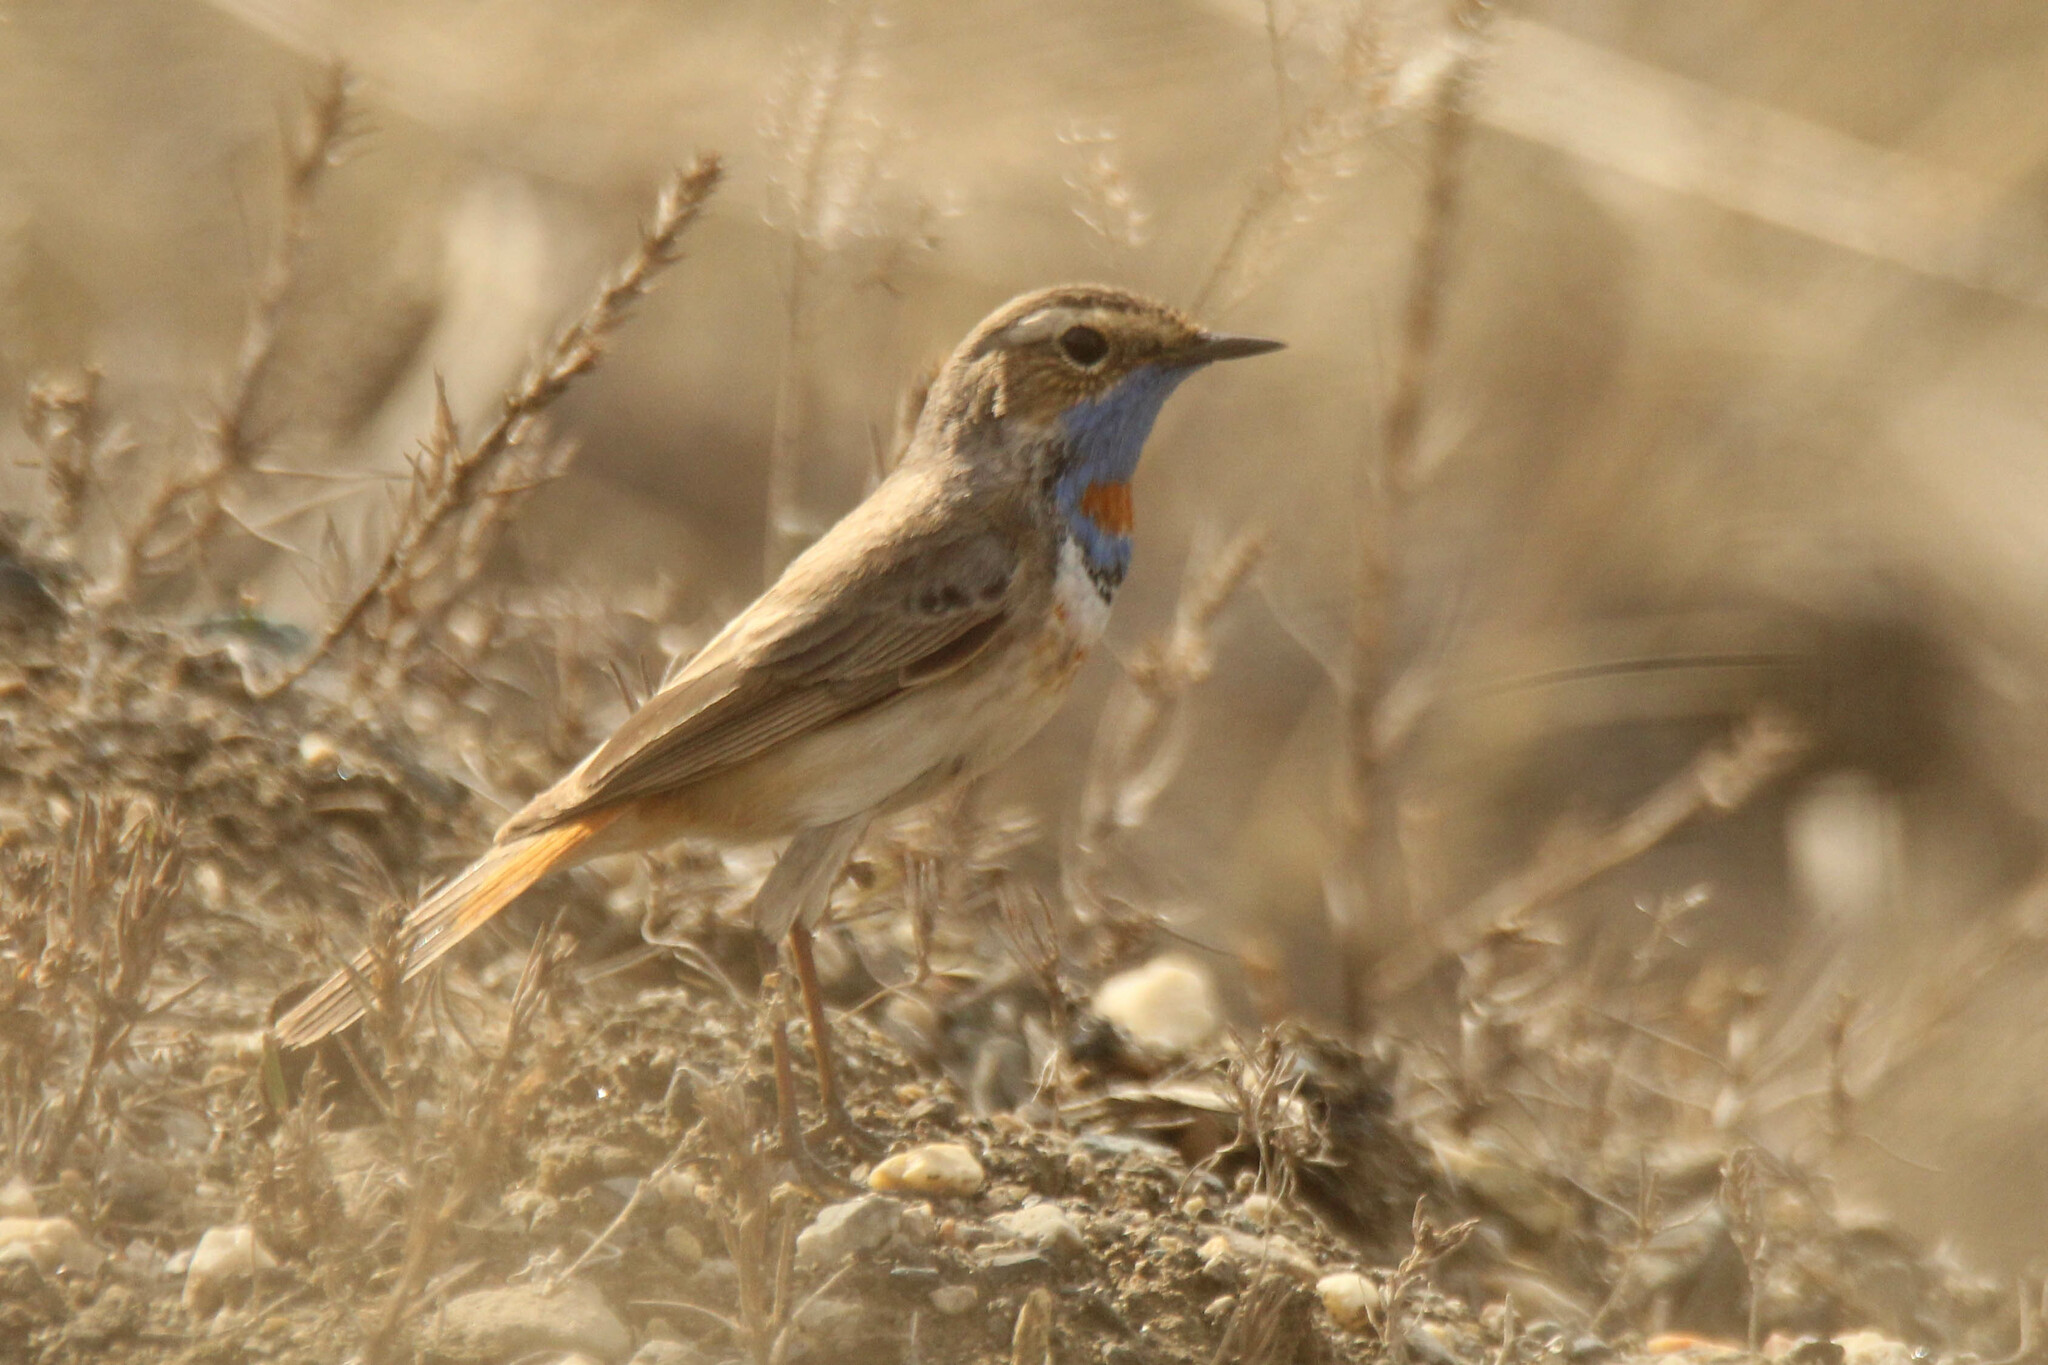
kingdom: Animalia
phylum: Chordata
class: Aves
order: Passeriformes
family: Muscicapidae
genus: Luscinia
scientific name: Luscinia svecica
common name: Bluethroat
